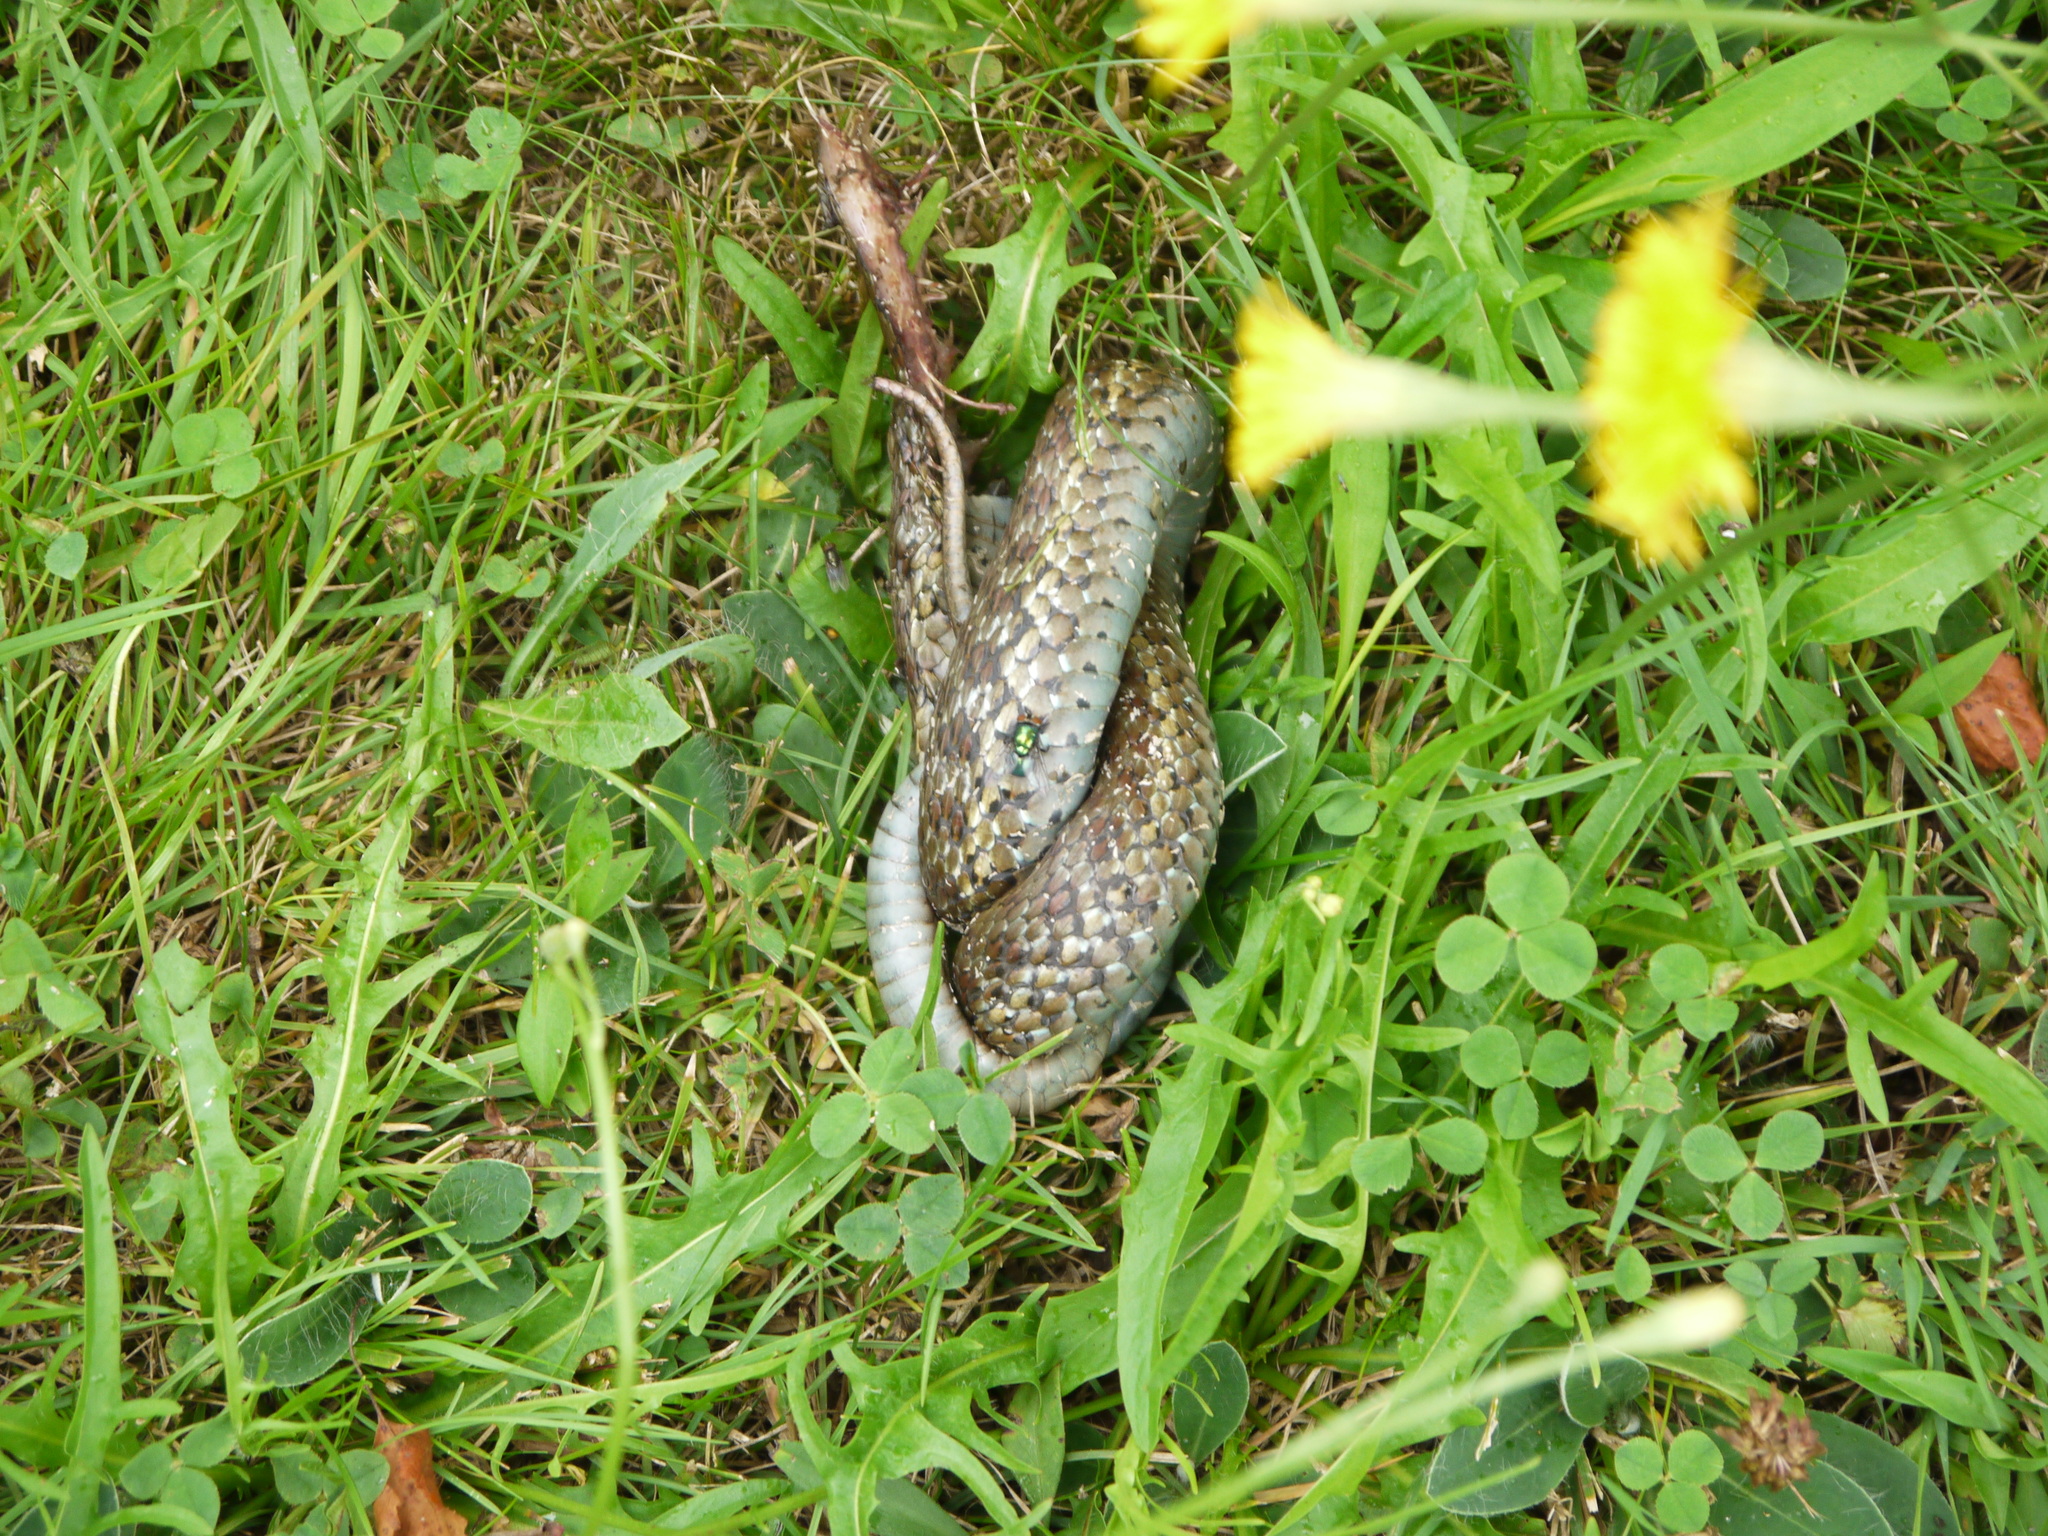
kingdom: Animalia
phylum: Chordata
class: Squamata
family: Colubridae
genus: Thamnophis
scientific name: Thamnophis sirtalis
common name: Common garter snake
